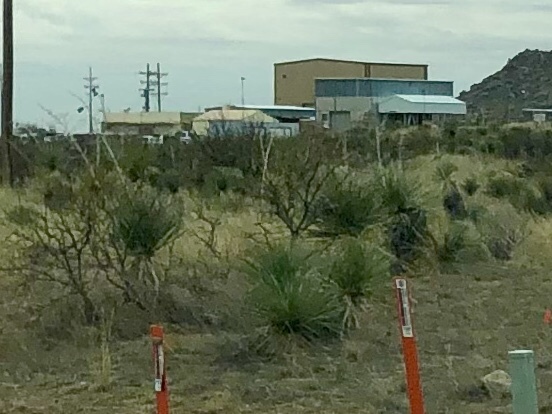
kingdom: Plantae
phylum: Tracheophyta
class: Liliopsida
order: Asparagales
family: Asparagaceae
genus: Yucca
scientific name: Yucca elata
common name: Palmella
